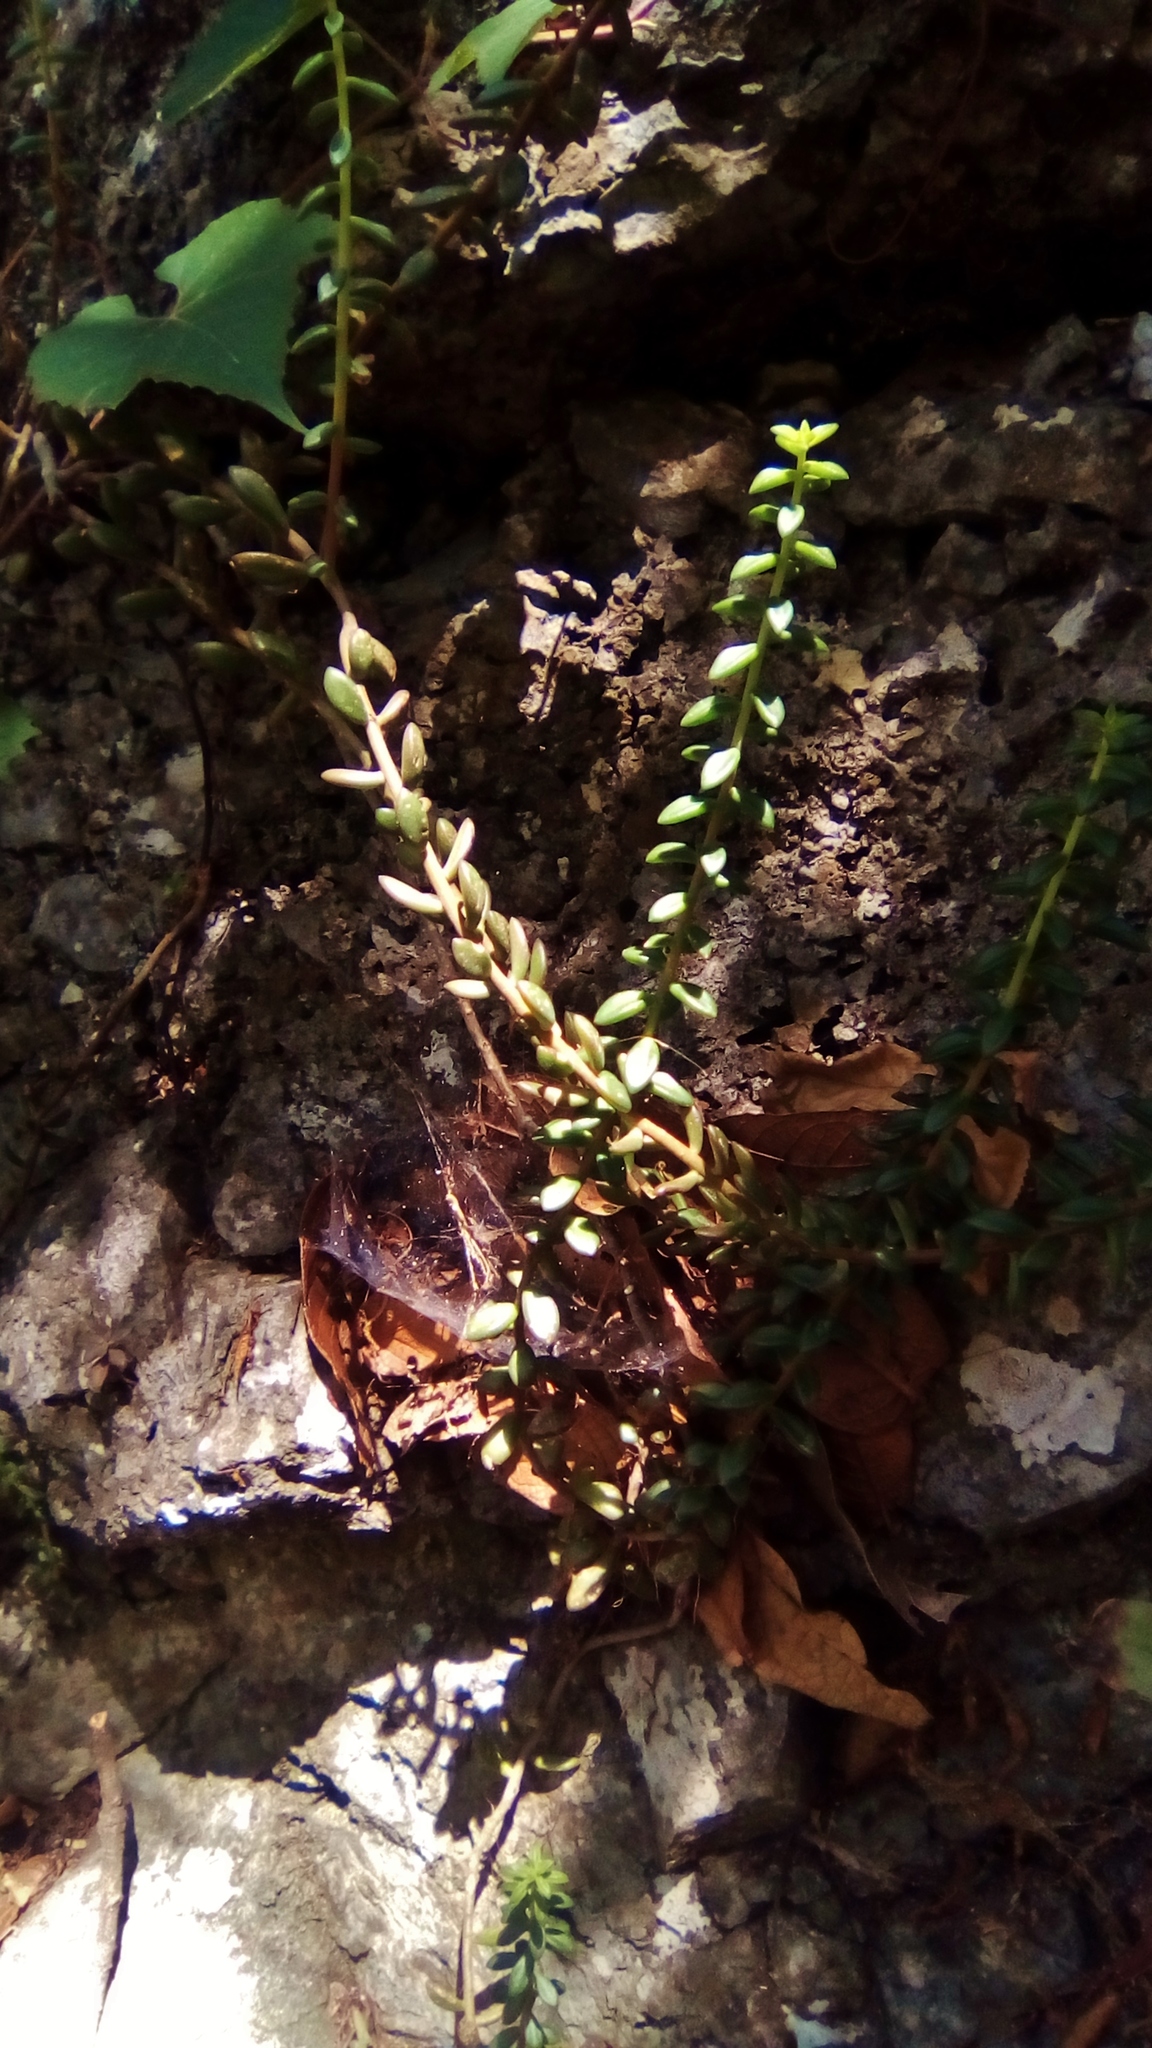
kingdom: Plantae
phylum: Tracheophyta
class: Magnoliopsida
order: Saxifragales
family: Crassulaceae
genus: Sedum
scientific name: Sedum calcicola
